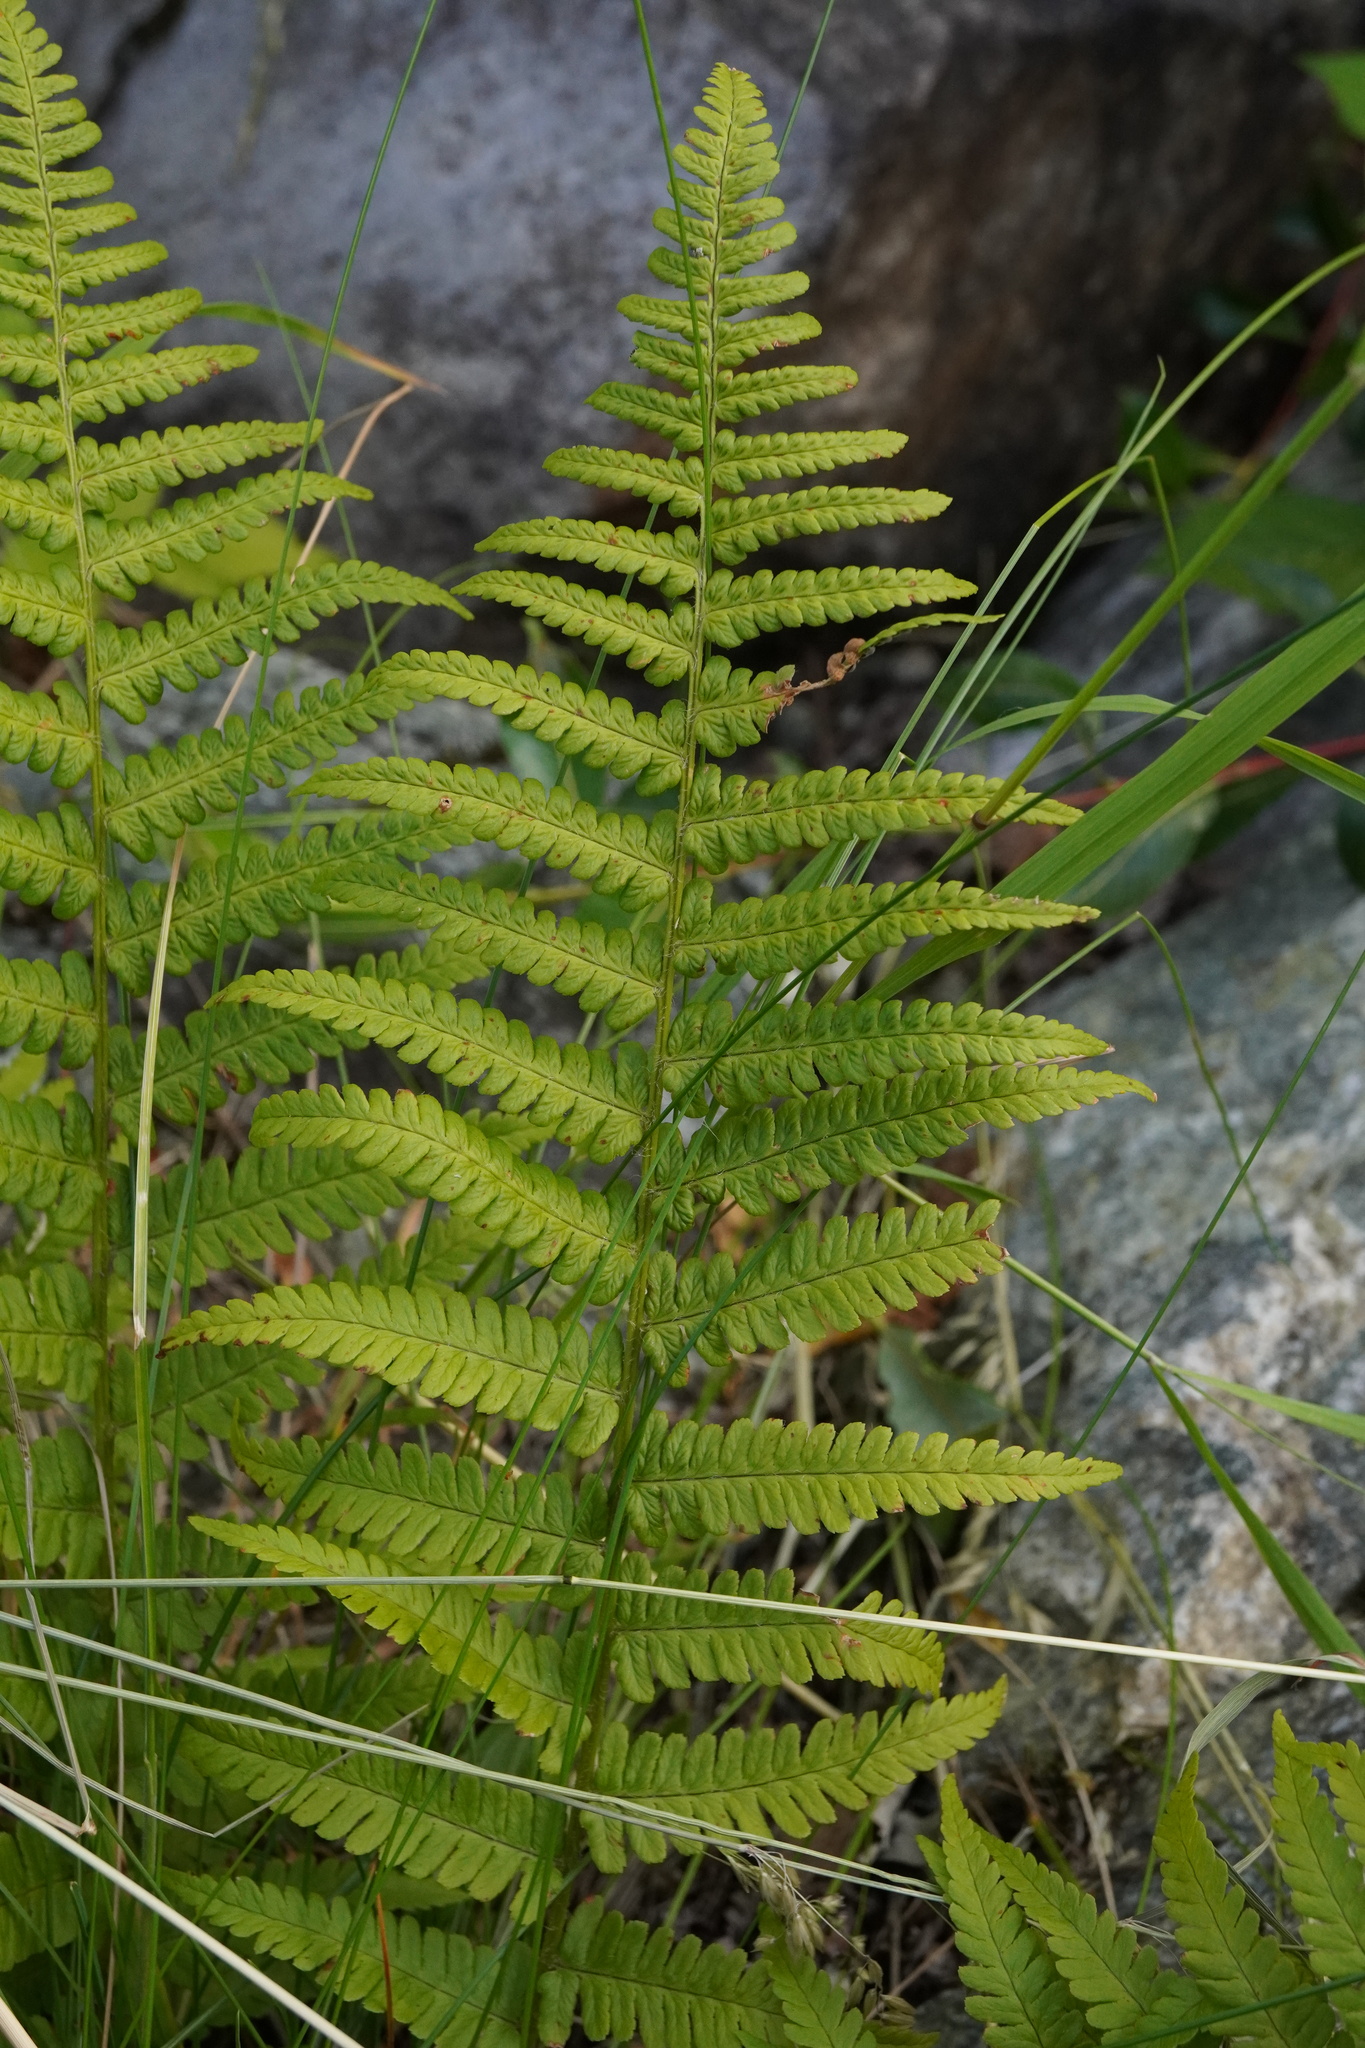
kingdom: Plantae
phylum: Tracheophyta
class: Polypodiopsida
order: Polypodiales
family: Dryopteridaceae
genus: Dryopteris
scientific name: Dryopteris filix-mas
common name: Male fern
